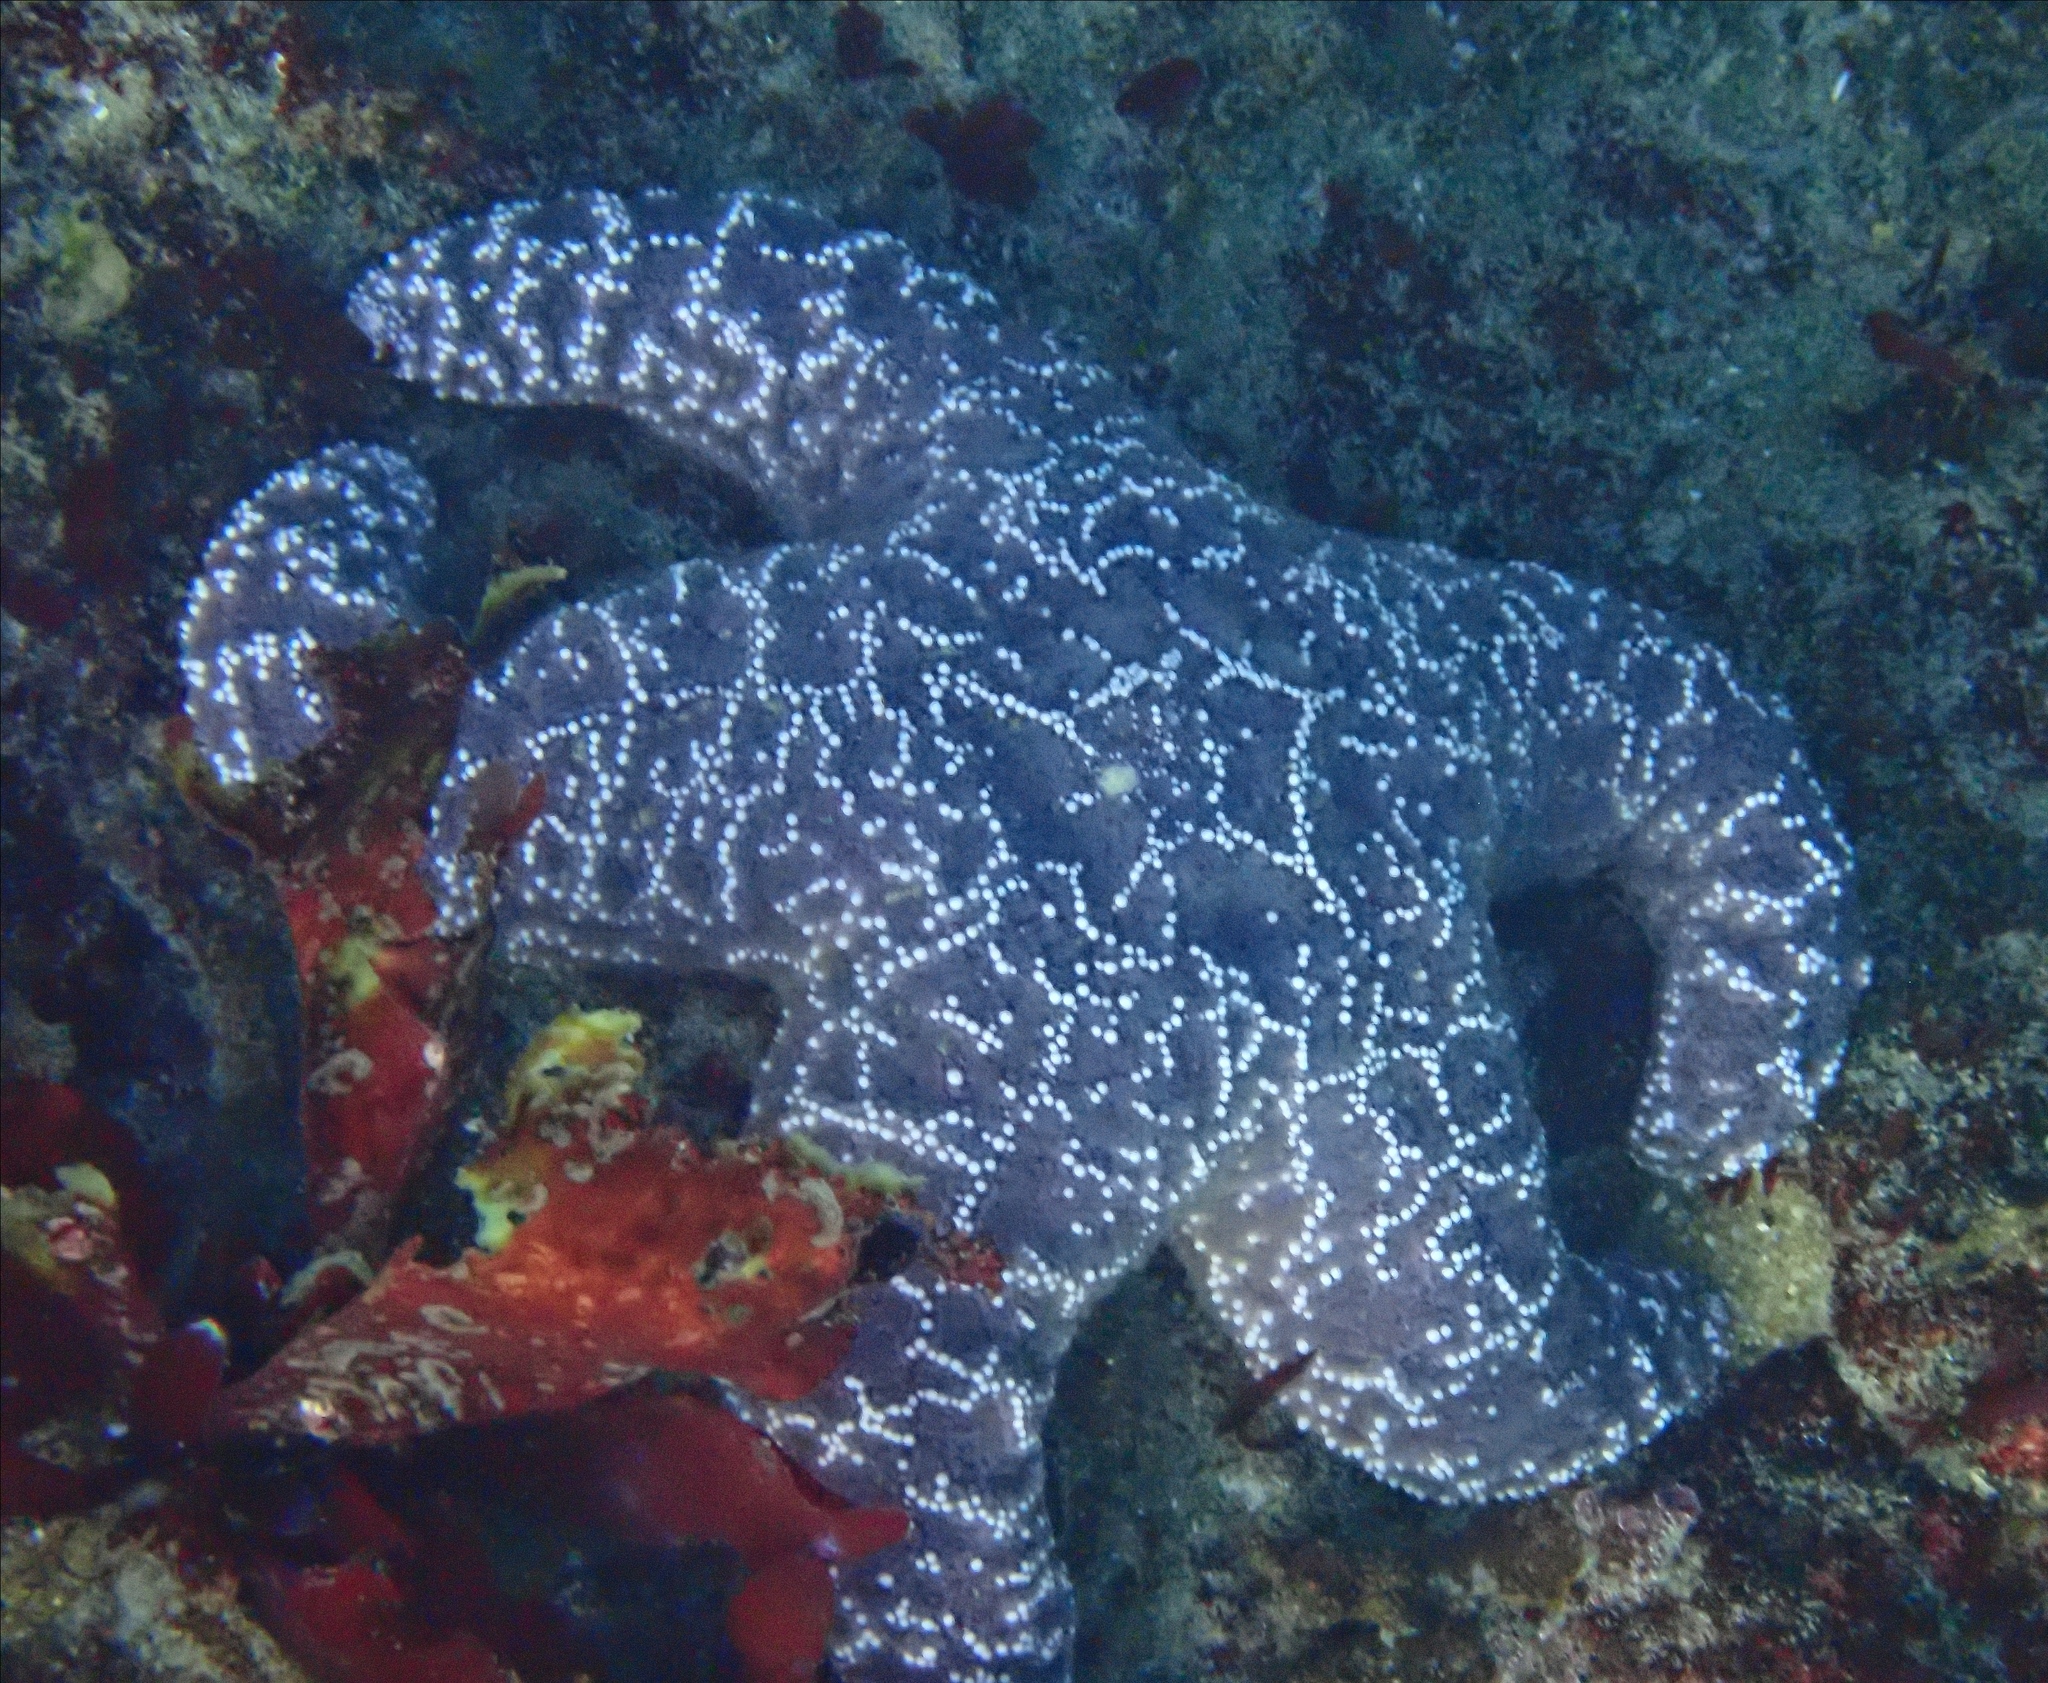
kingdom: Animalia
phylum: Echinodermata
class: Asteroidea
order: Forcipulatida
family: Asteriidae
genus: Pisaster
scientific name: Pisaster ochraceus
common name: Ochre stars
